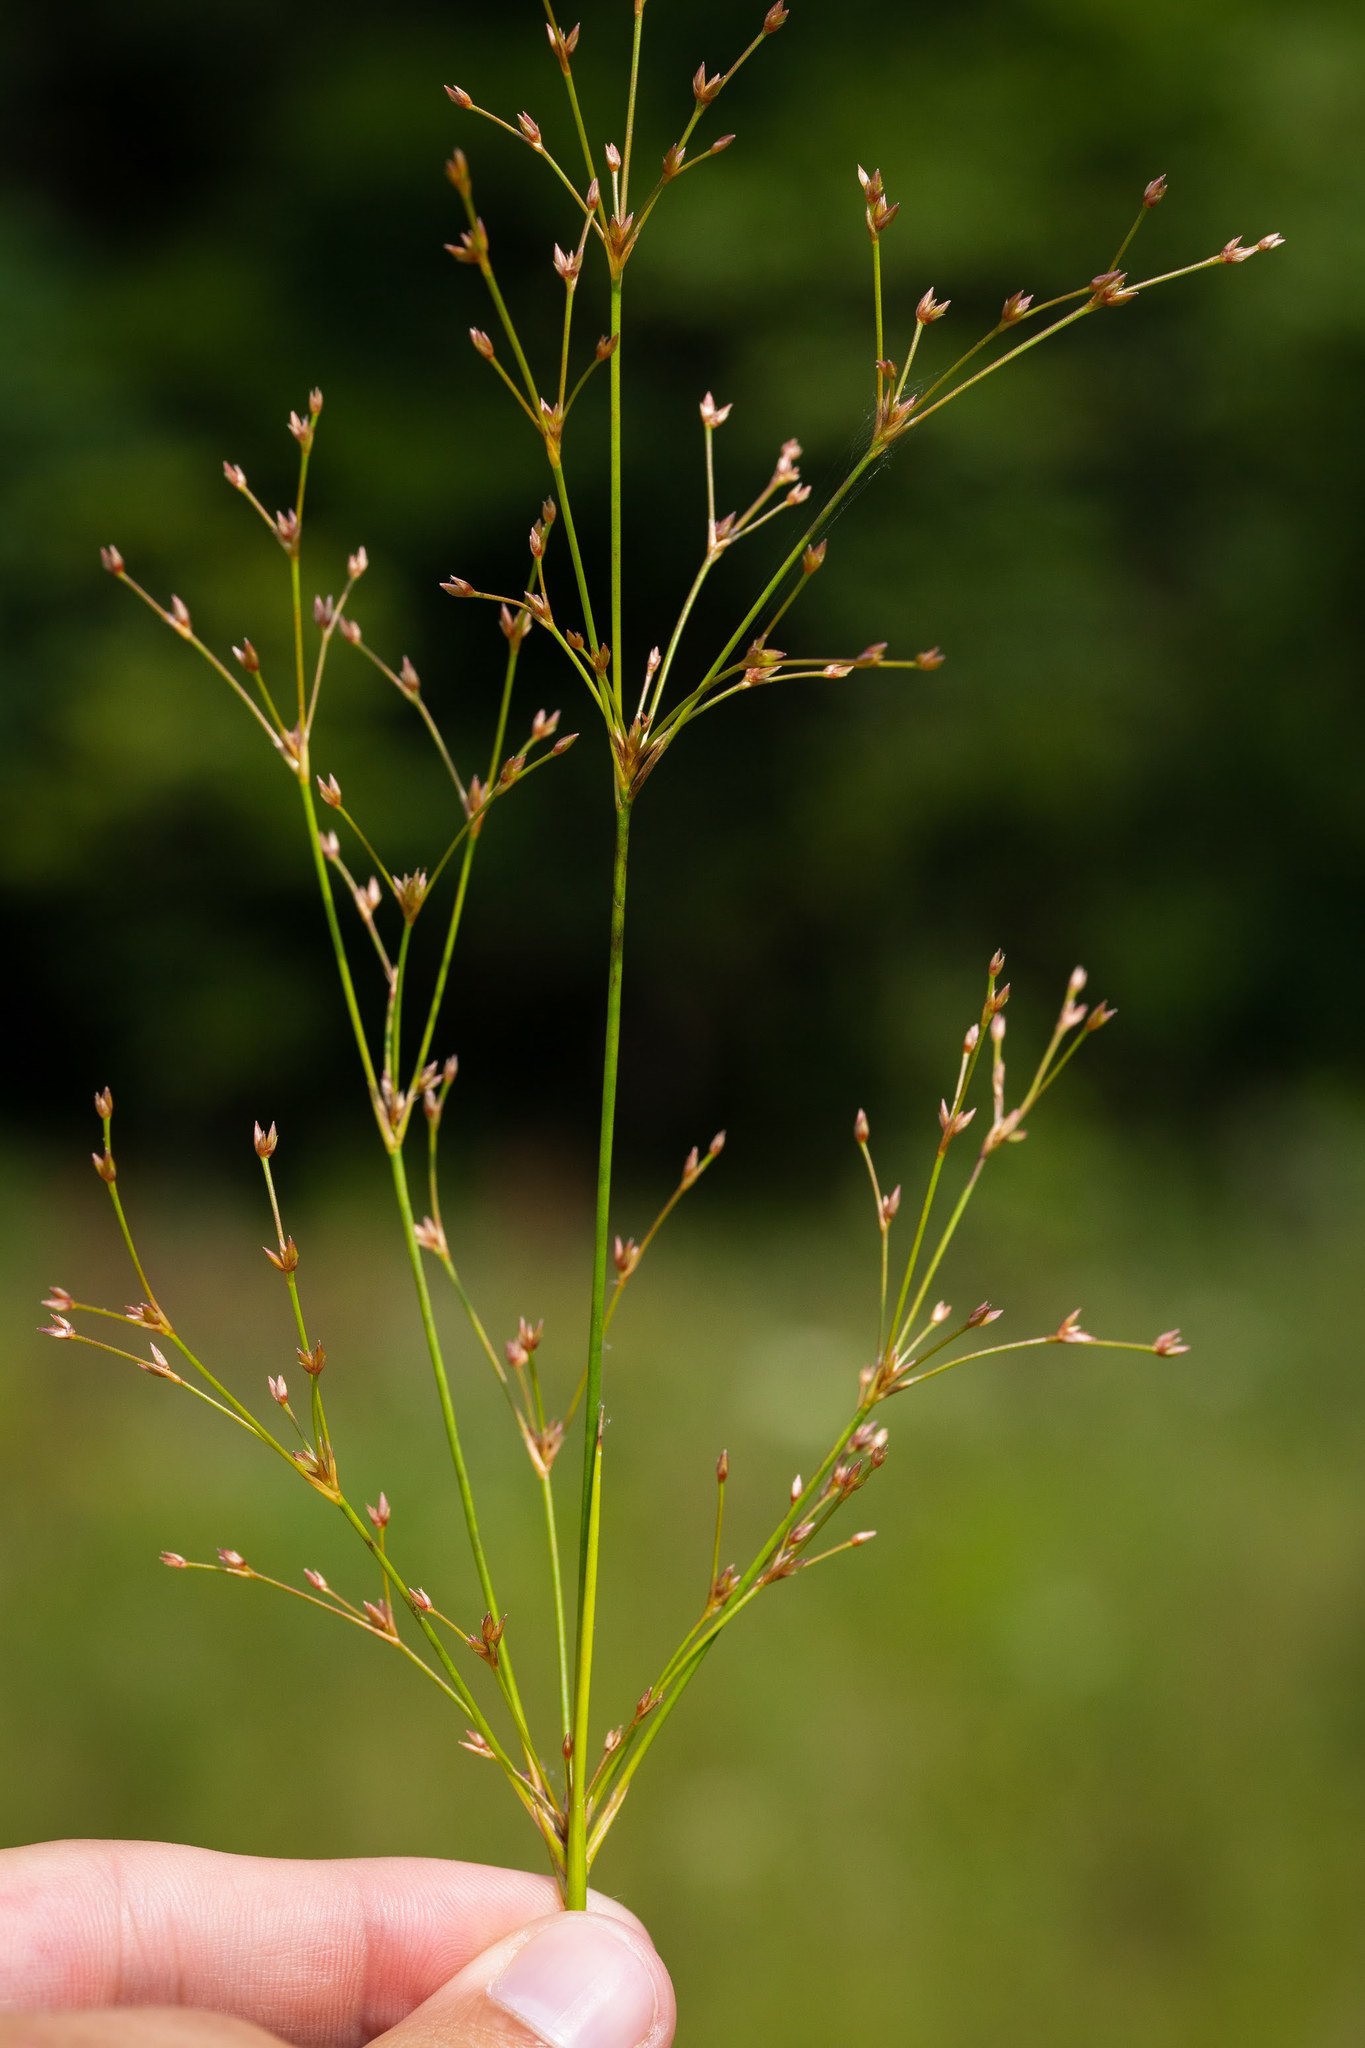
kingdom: Plantae
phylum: Tracheophyta
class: Liliopsida
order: Poales
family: Juncaceae
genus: Juncus
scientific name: Juncus subcaudatus
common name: Engelmann's rush
